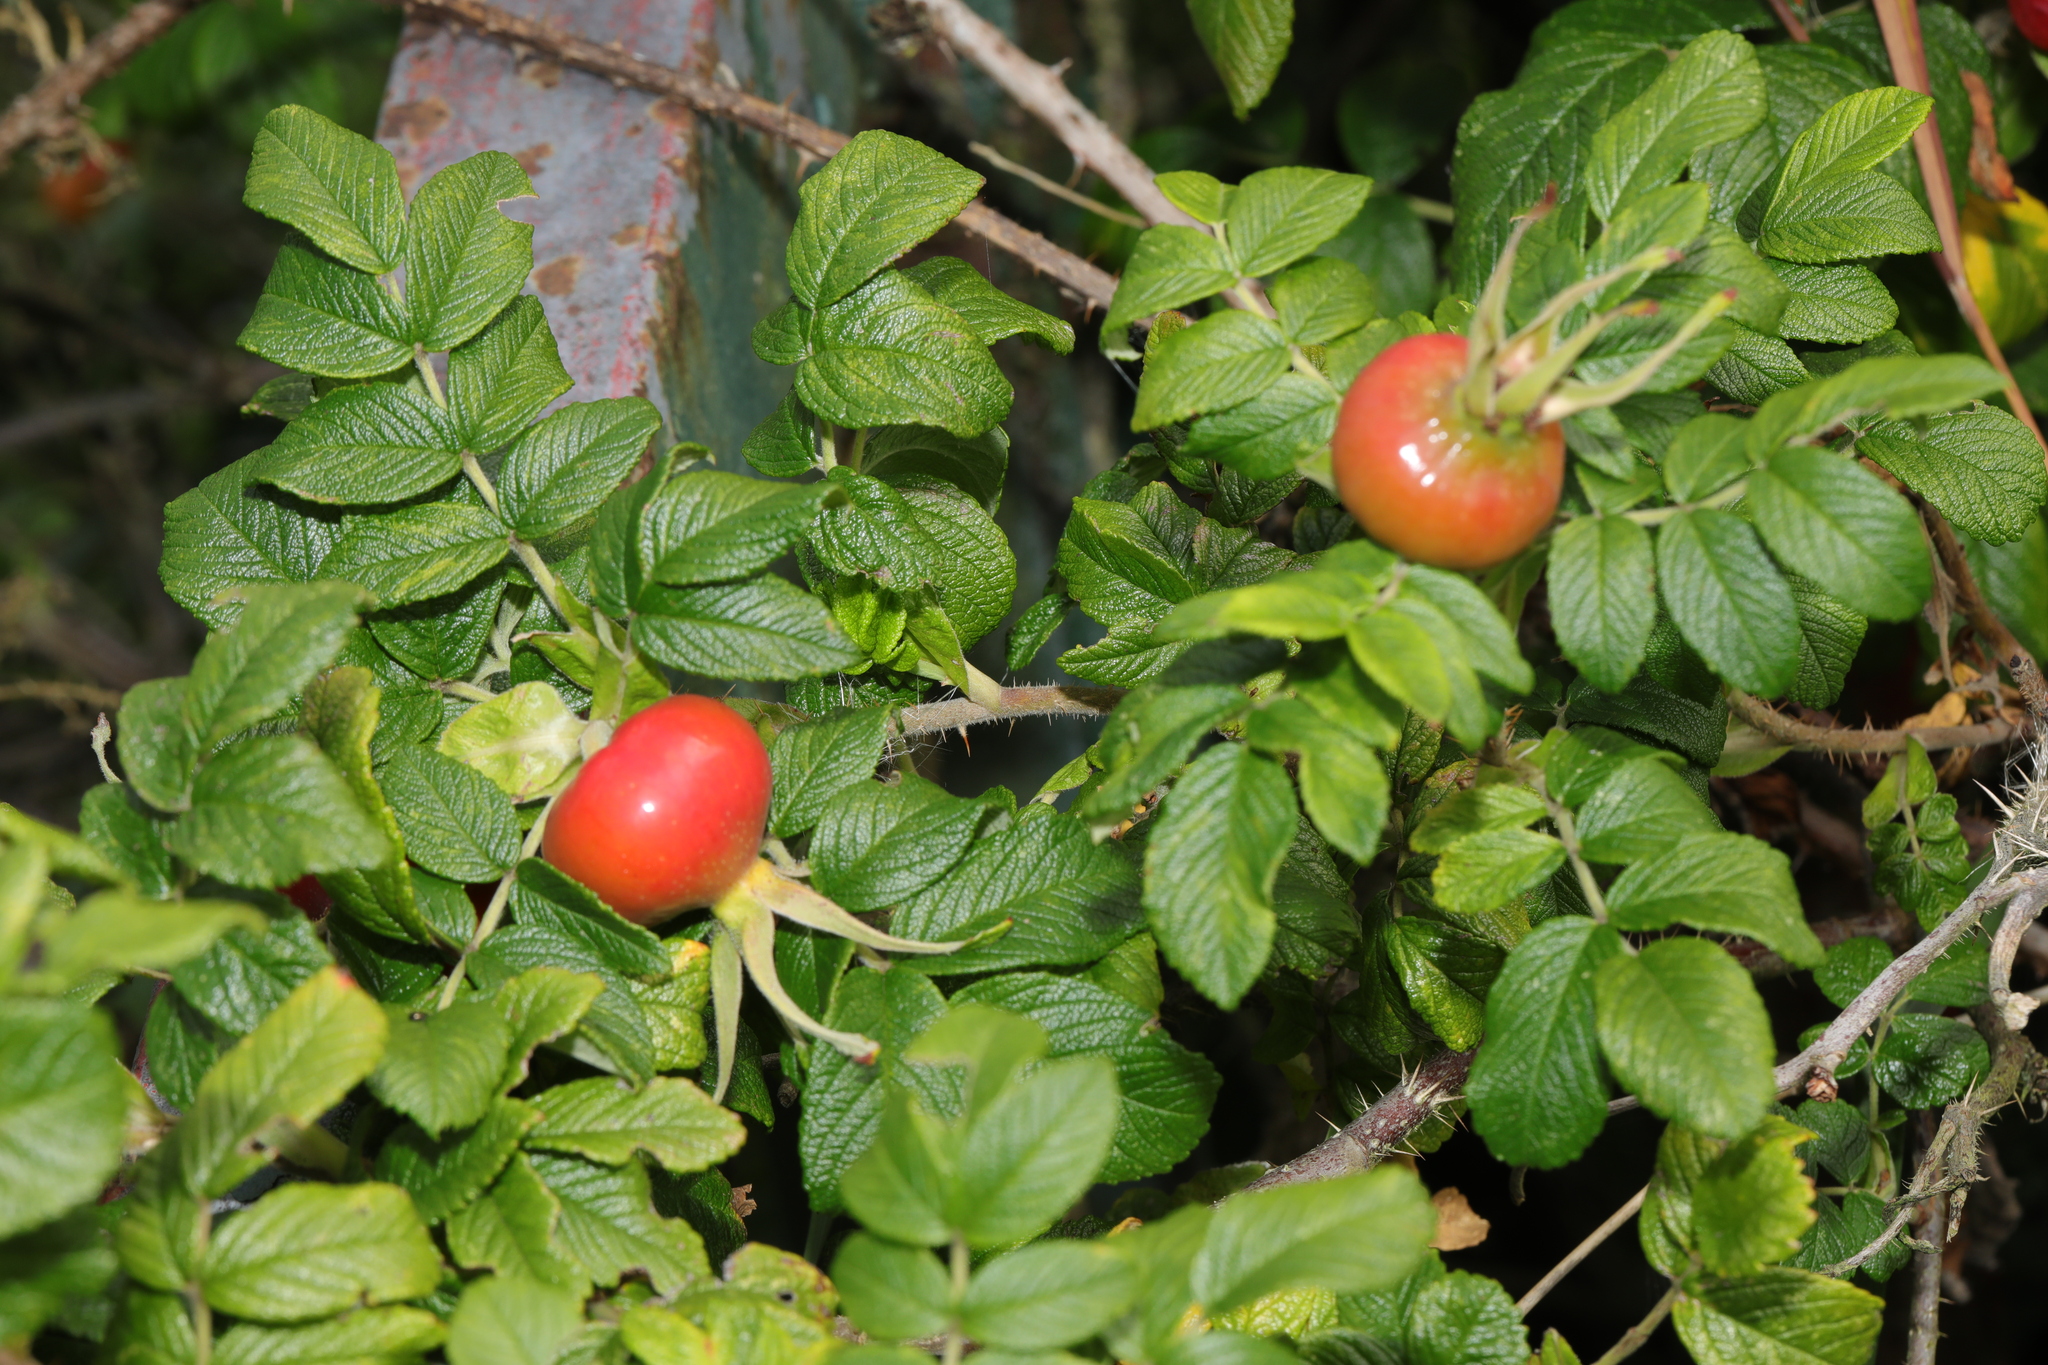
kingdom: Plantae
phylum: Tracheophyta
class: Magnoliopsida
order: Rosales
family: Rosaceae
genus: Rosa
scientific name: Rosa rugosa
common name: Japanese rose
